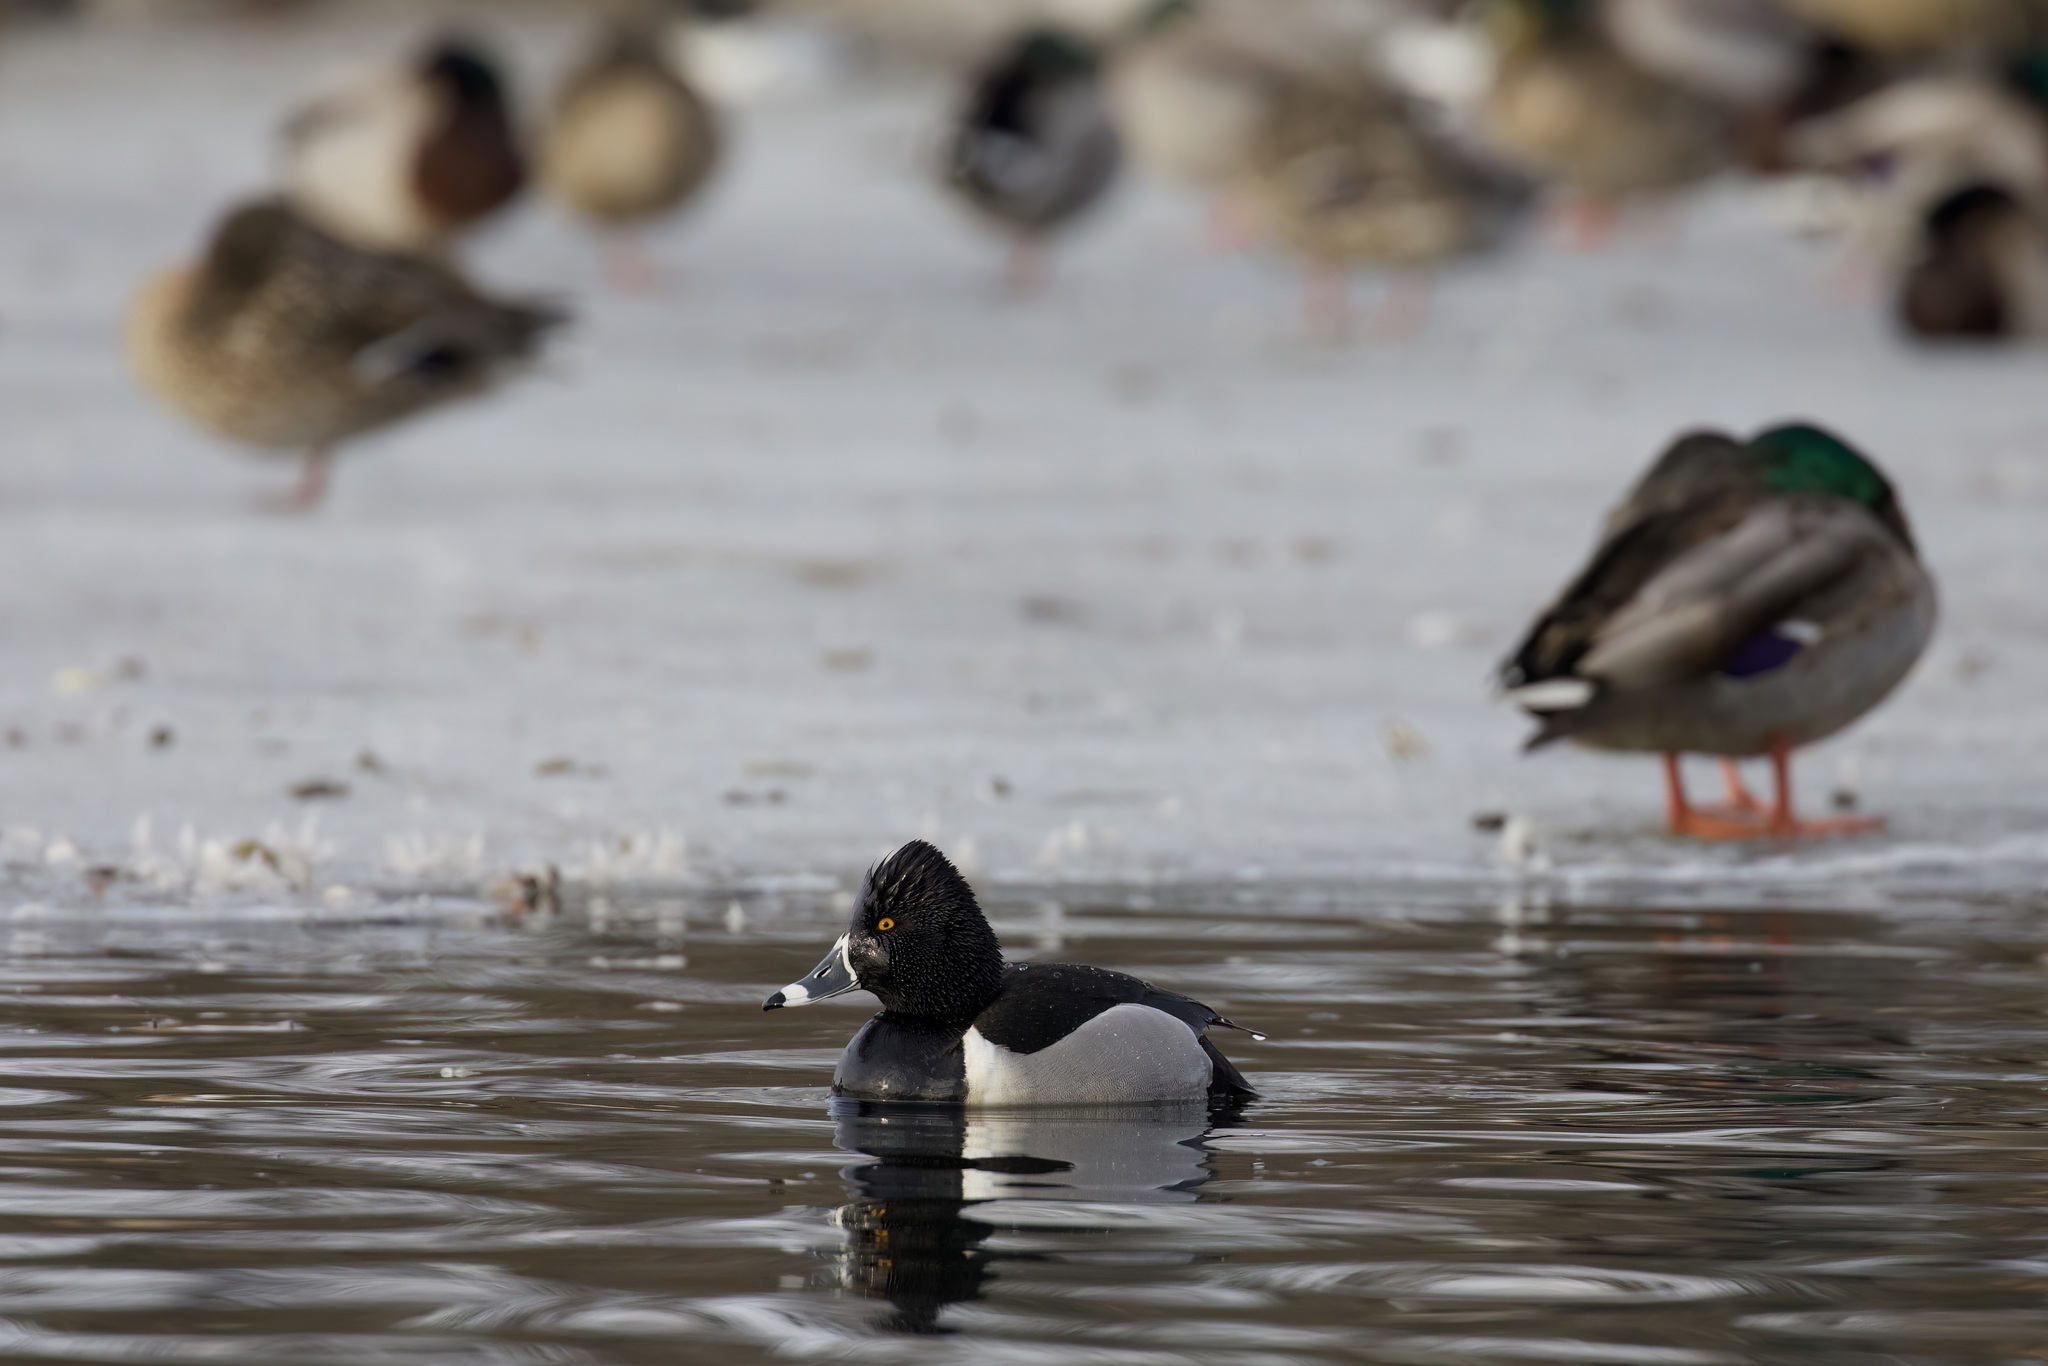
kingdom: Animalia
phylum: Chordata
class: Aves
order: Anseriformes
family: Anatidae
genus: Aythya
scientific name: Aythya collaris
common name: Ring-necked duck
